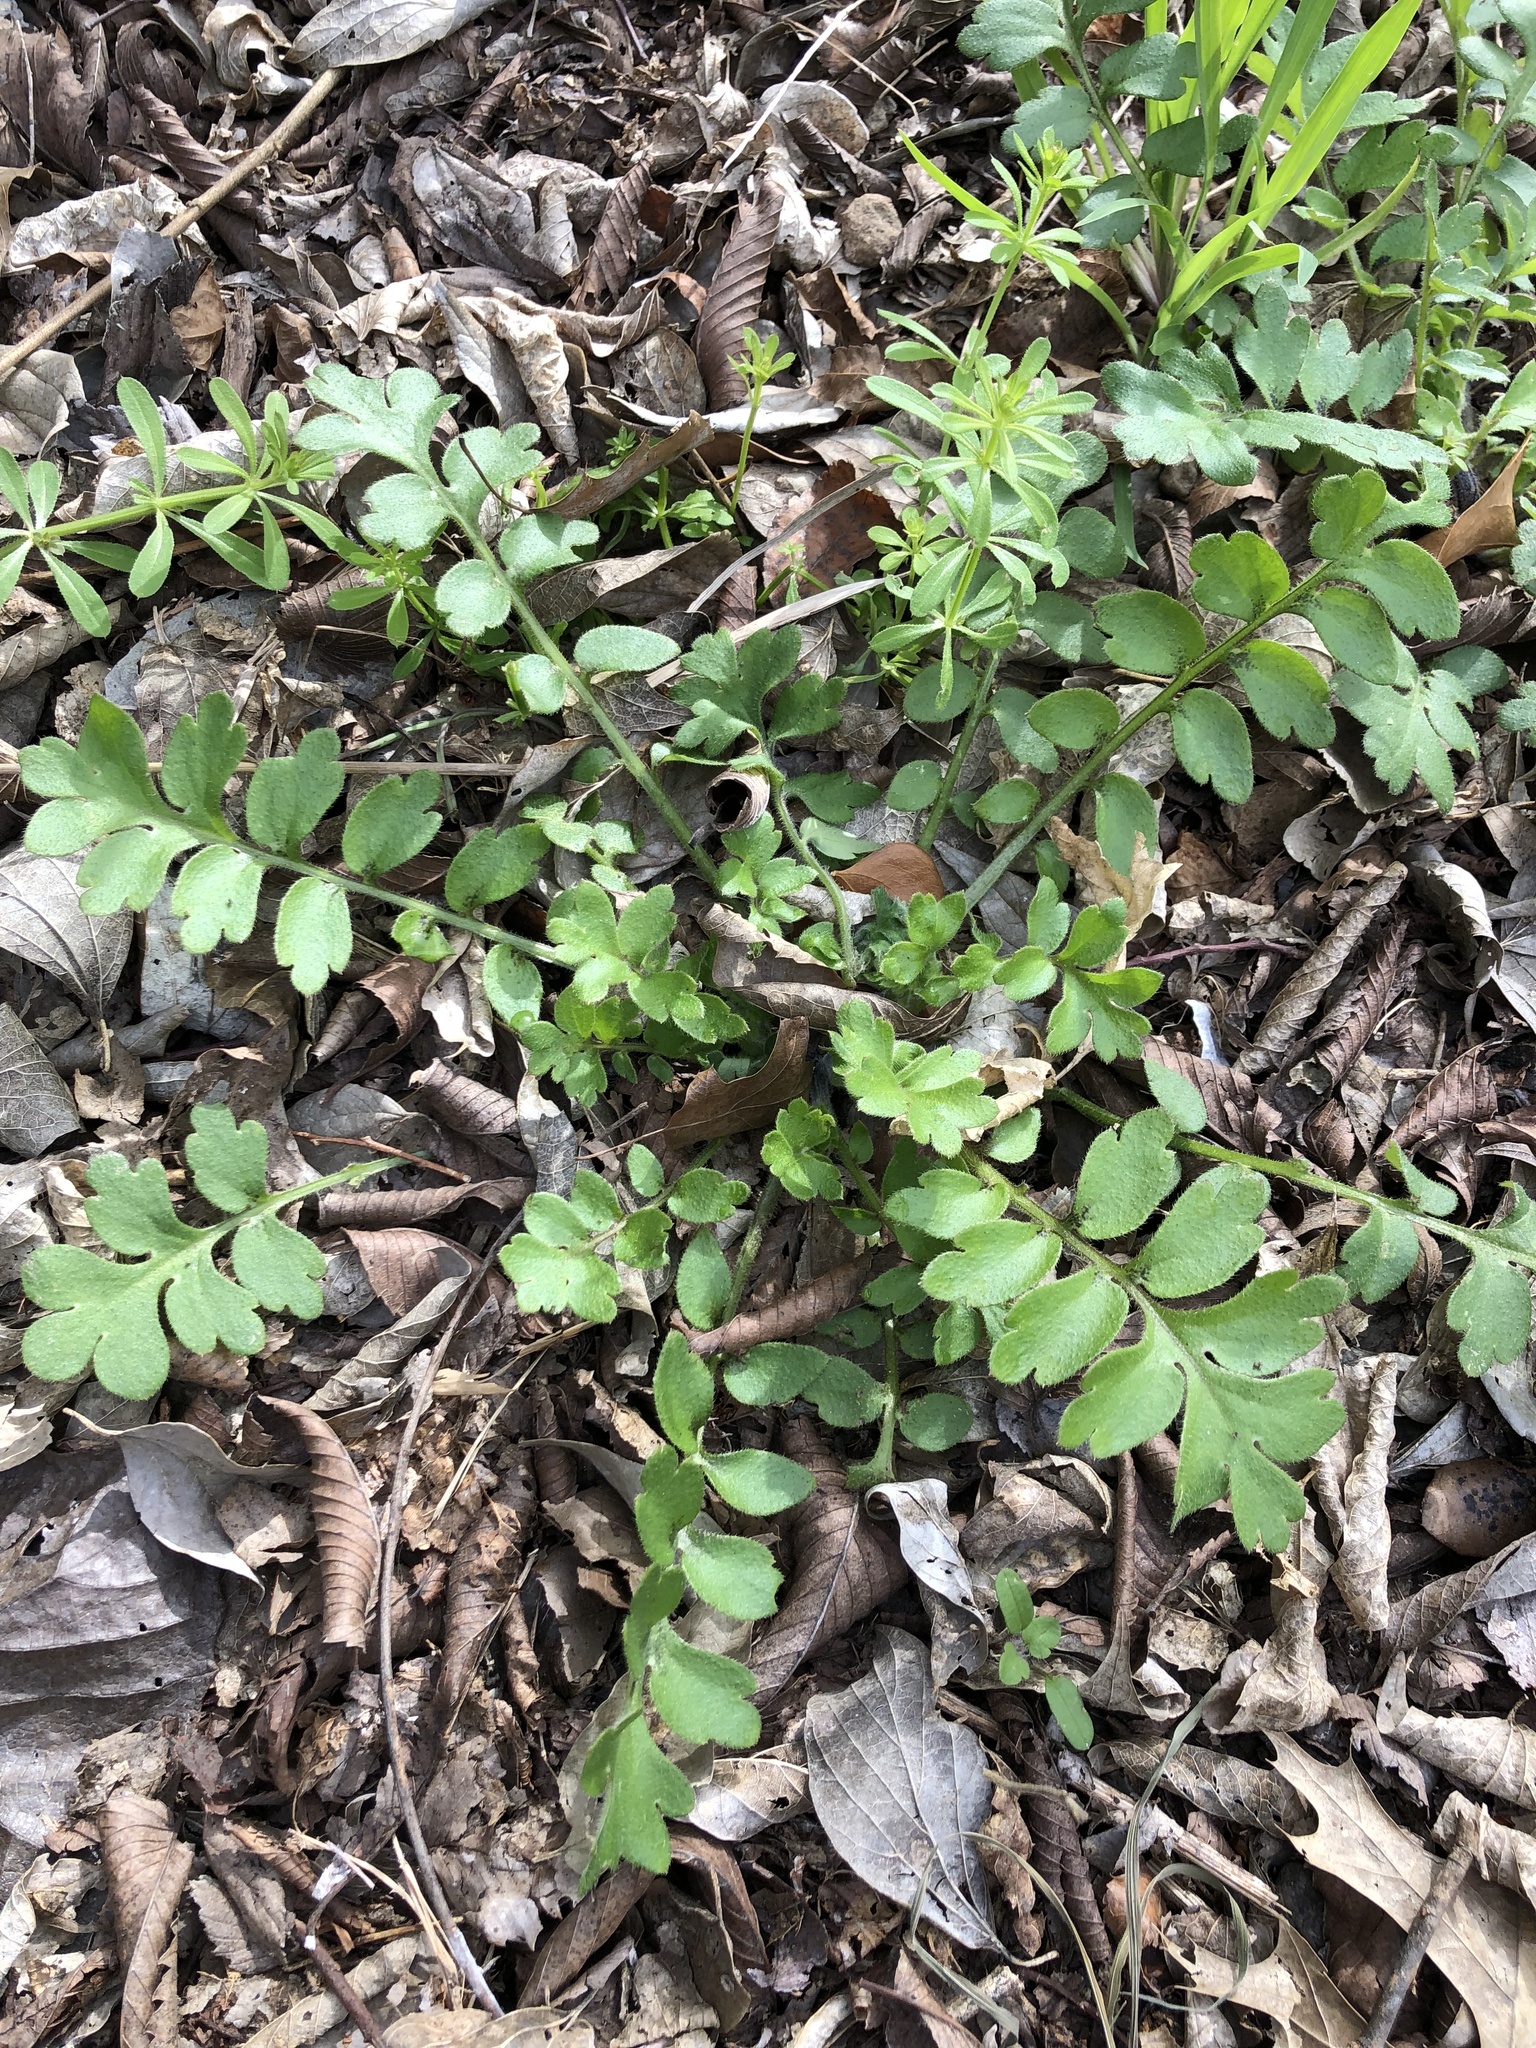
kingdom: Plantae
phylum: Tracheophyta
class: Magnoliopsida
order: Boraginales
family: Hydrophyllaceae
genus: Nemophila
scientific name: Nemophila phacelioides
